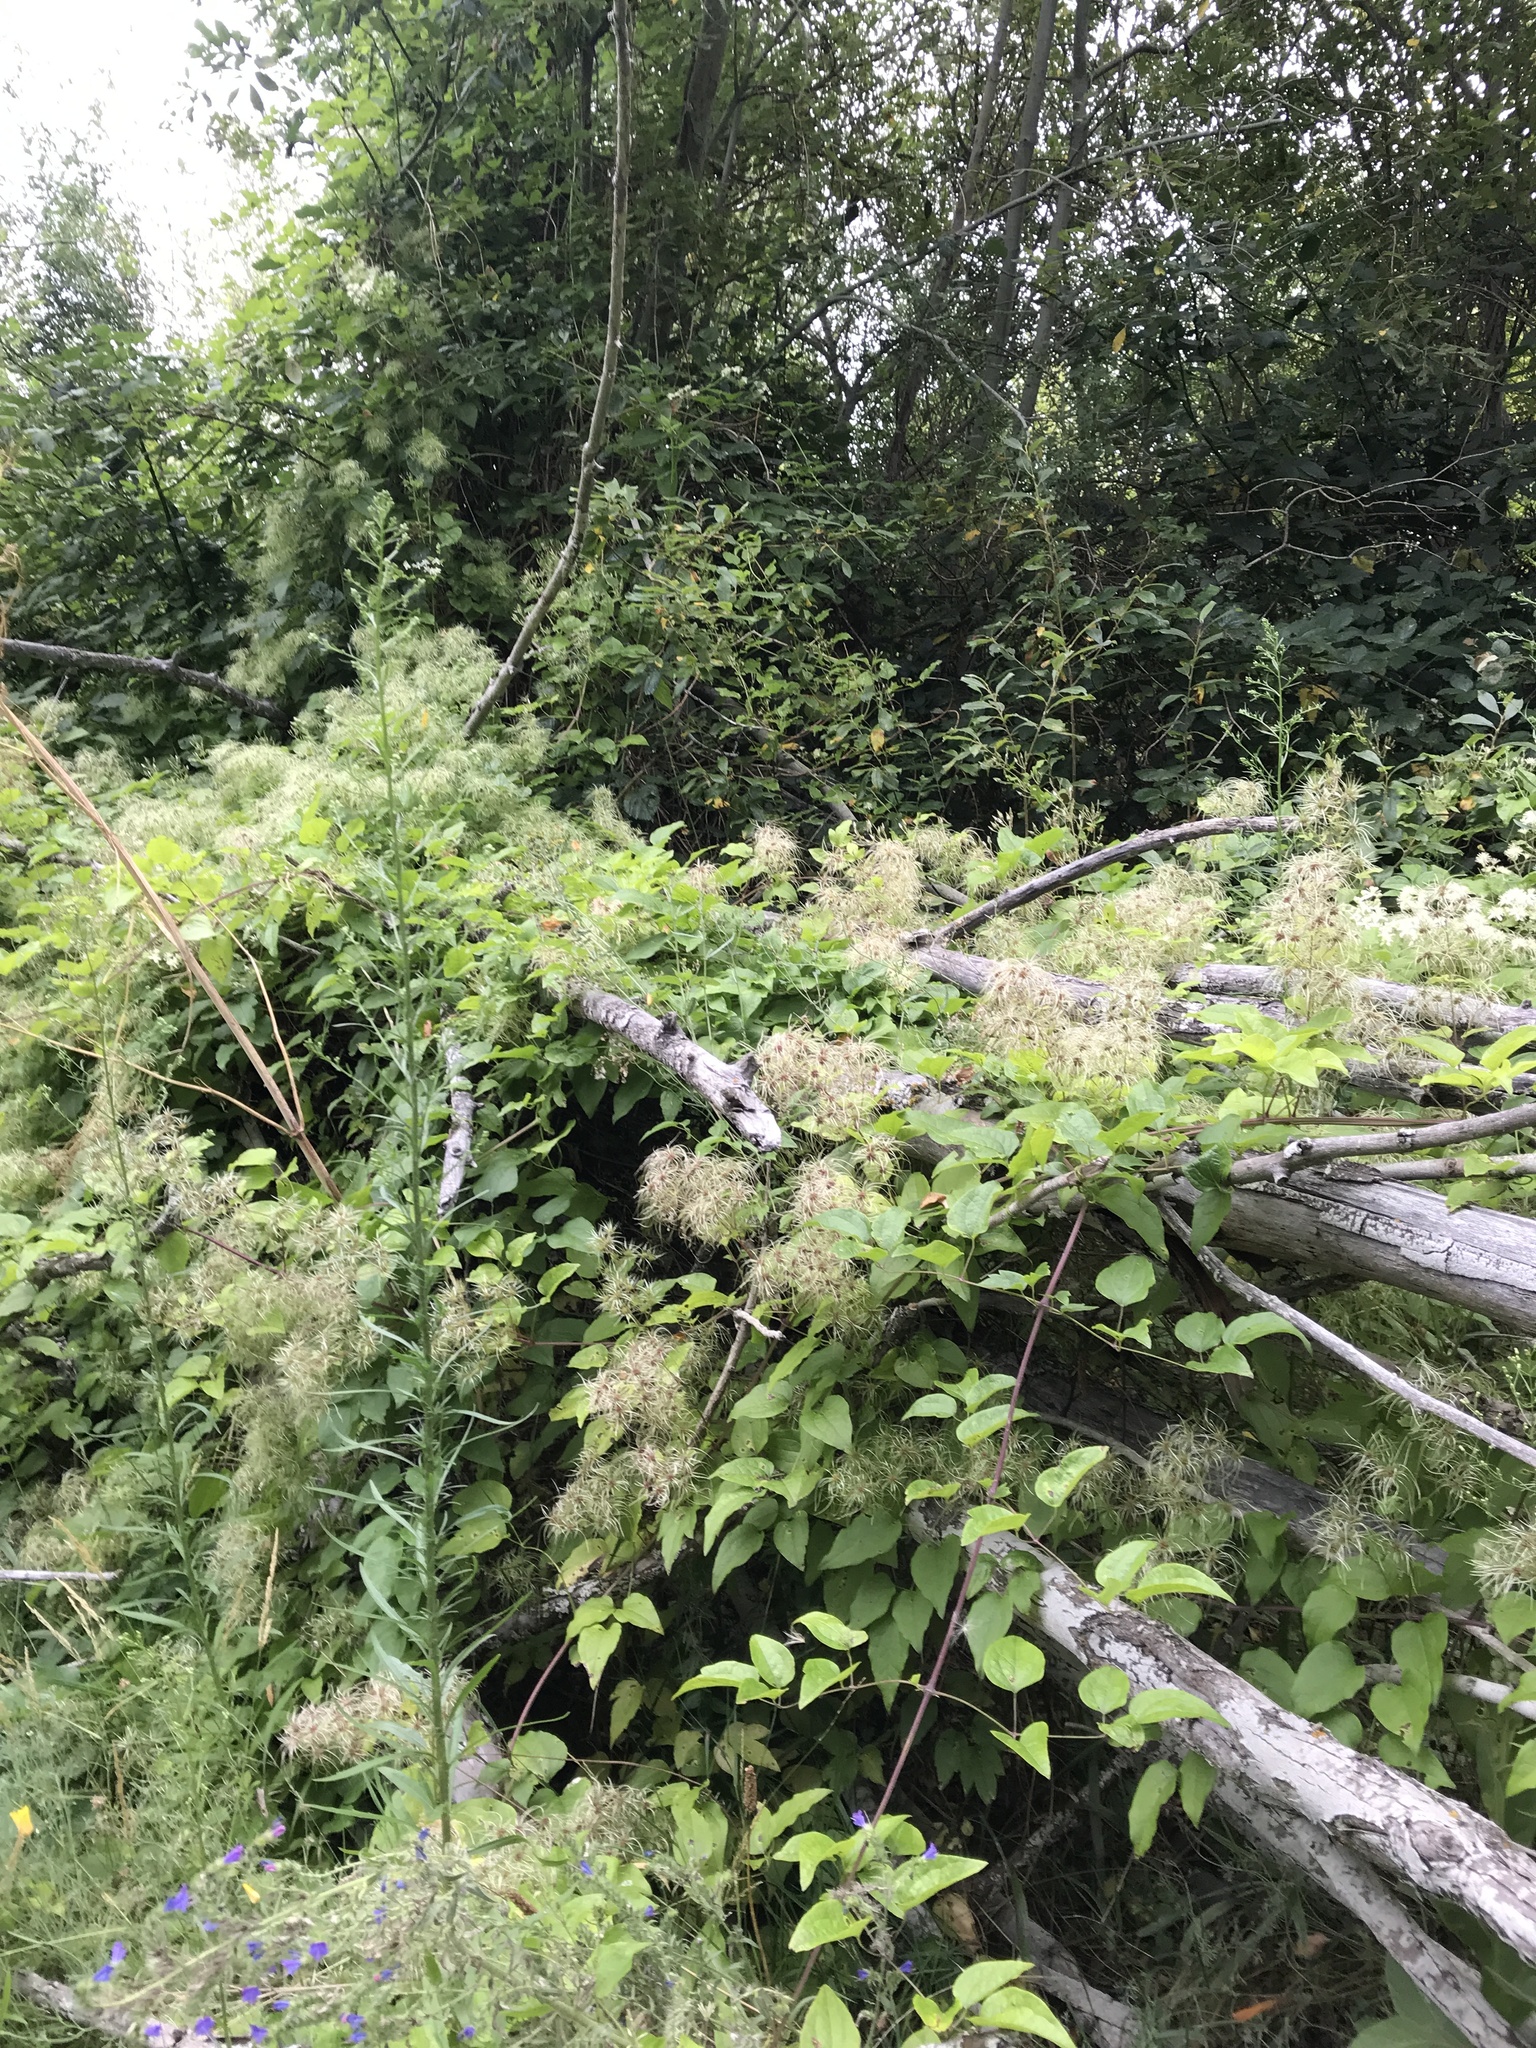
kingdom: Plantae
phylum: Tracheophyta
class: Magnoliopsida
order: Ranunculales
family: Ranunculaceae
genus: Clematis
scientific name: Clematis vitalba
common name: Evergreen clematis
